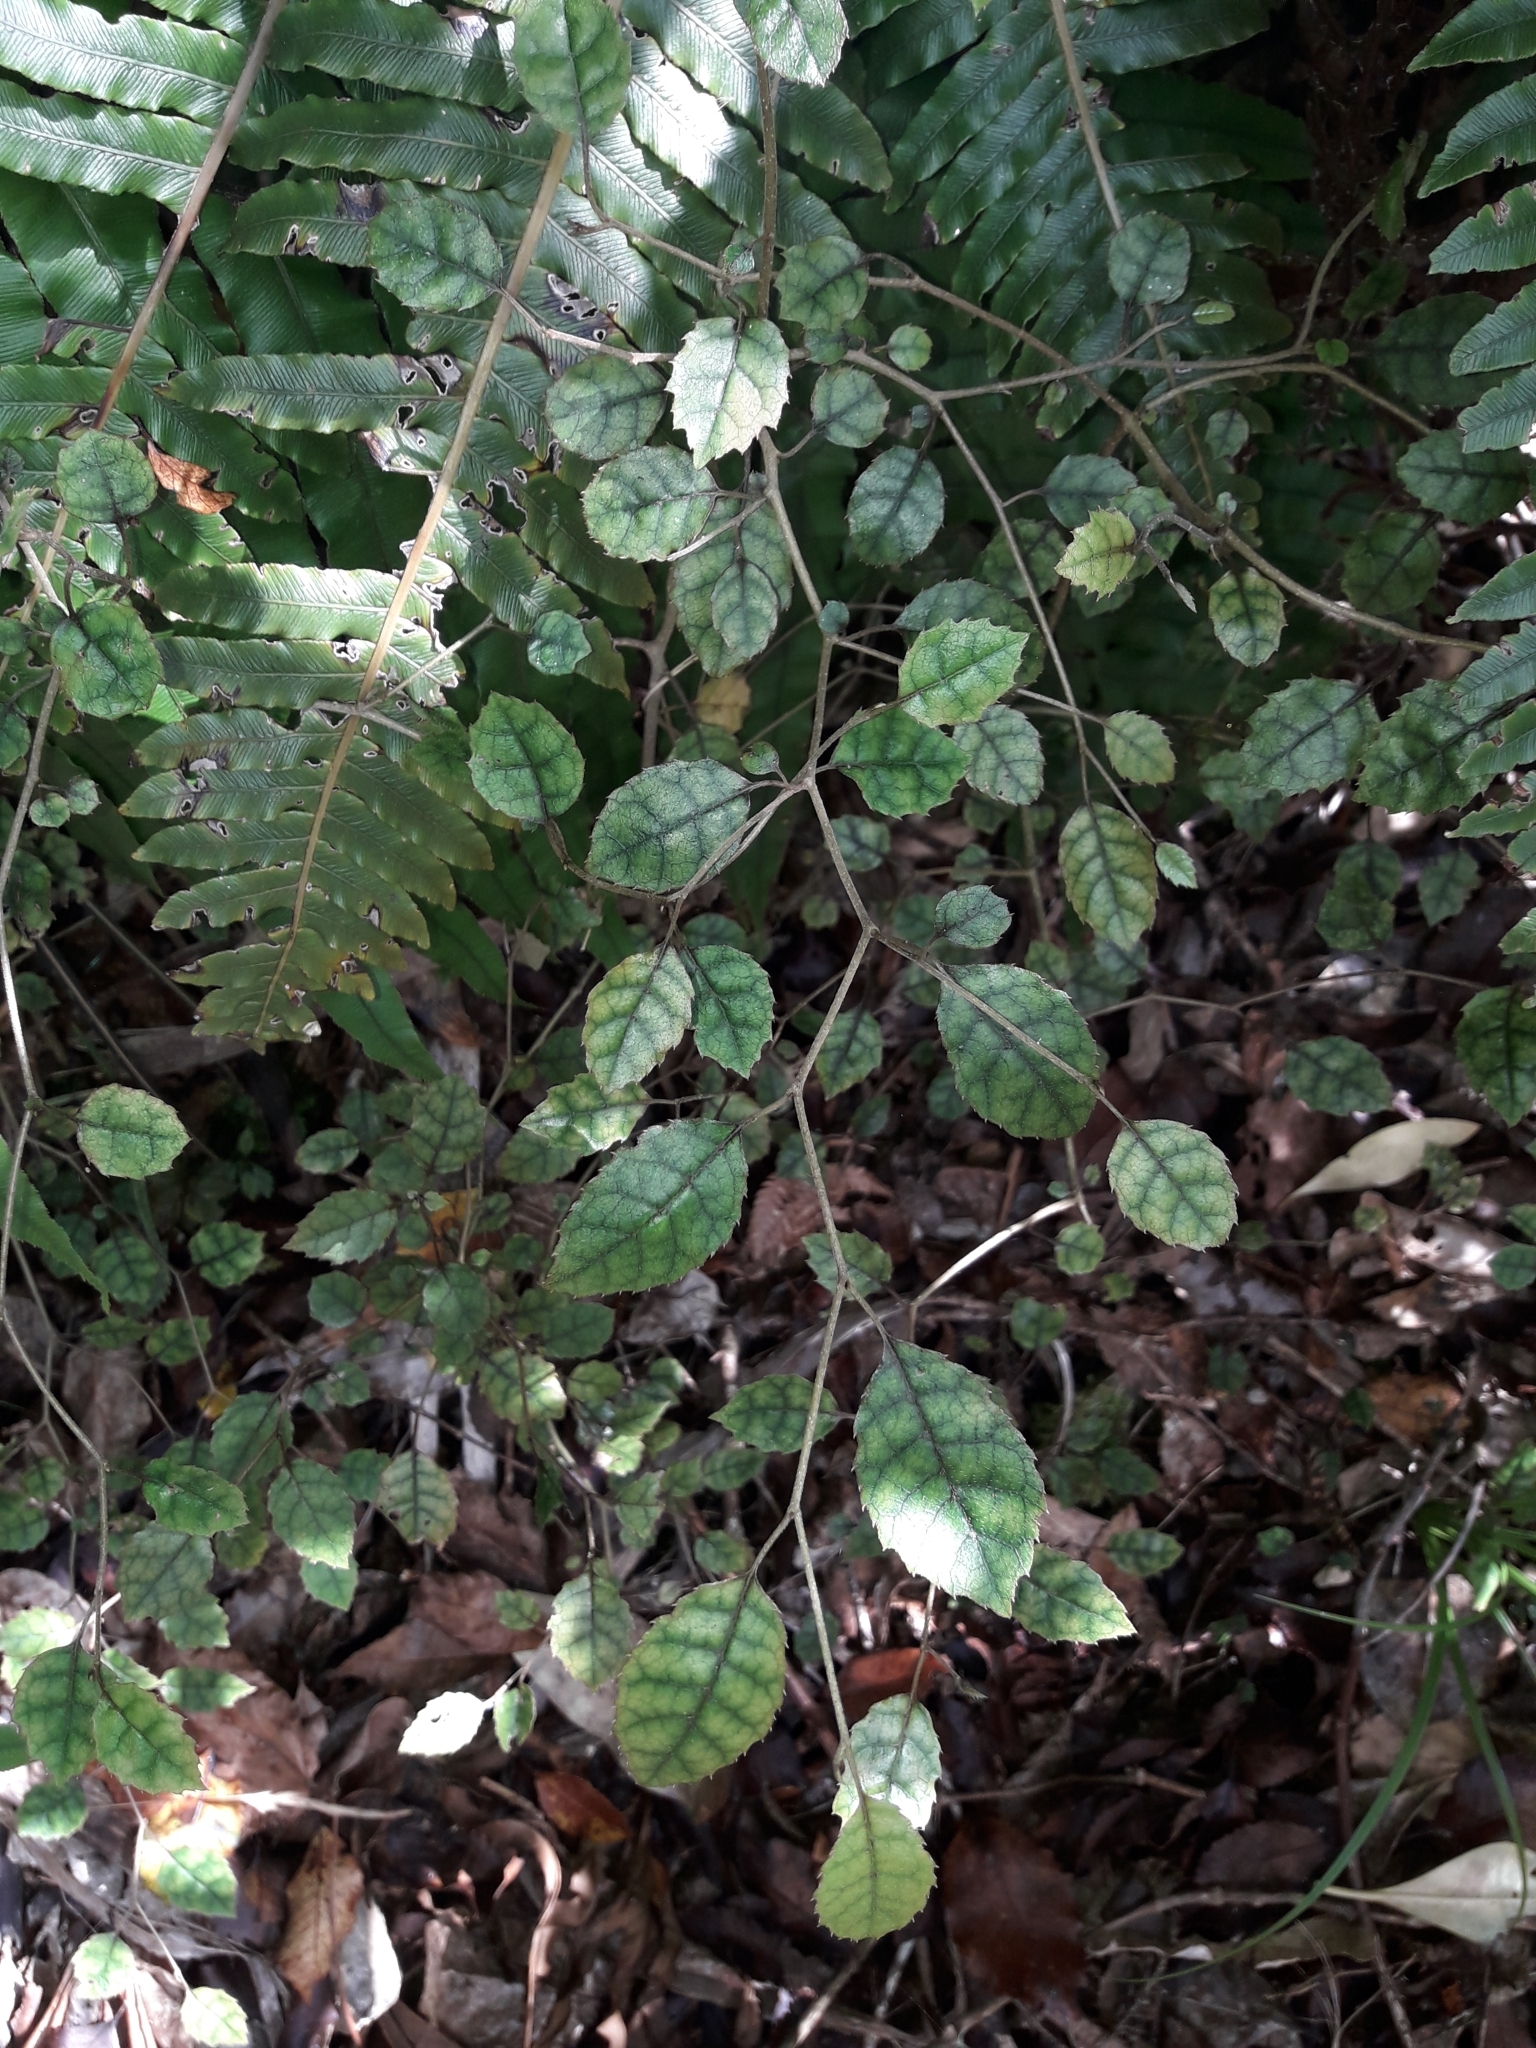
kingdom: Plantae
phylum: Tracheophyta
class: Magnoliopsida
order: Asterales
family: Rousseaceae
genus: Carpodetus
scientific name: Carpodetus serratus
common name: White mapau
